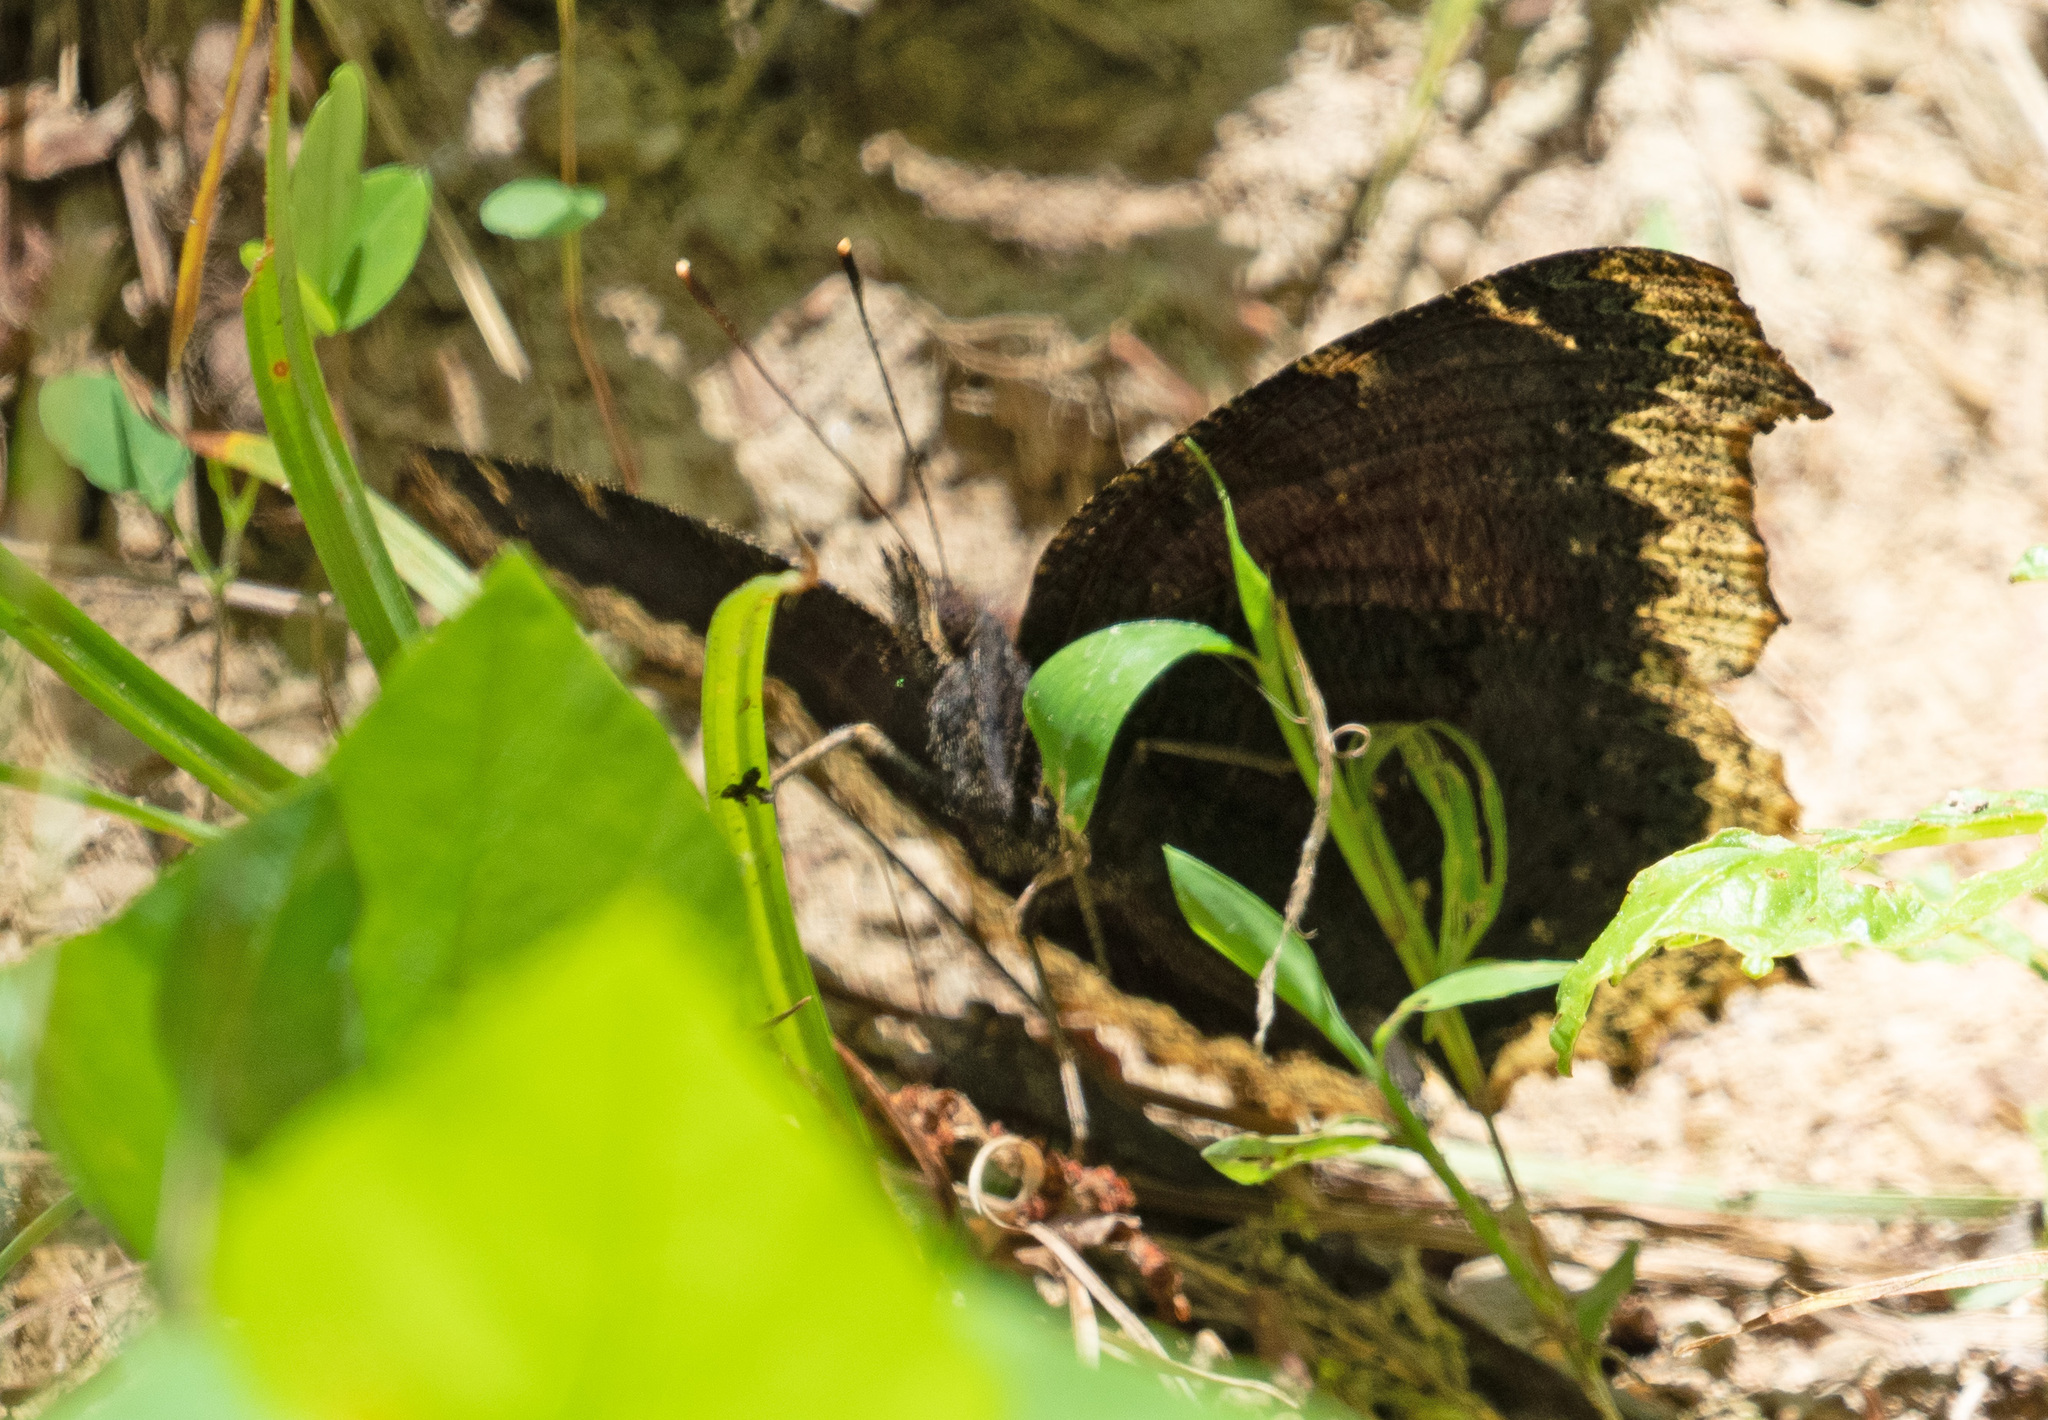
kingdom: Animalia
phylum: Arthropoda
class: Insecta
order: Lepidoptera
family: Nymphalidae
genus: Nymphalis
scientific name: Nymphalis antiopa
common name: Camberwell beauty
